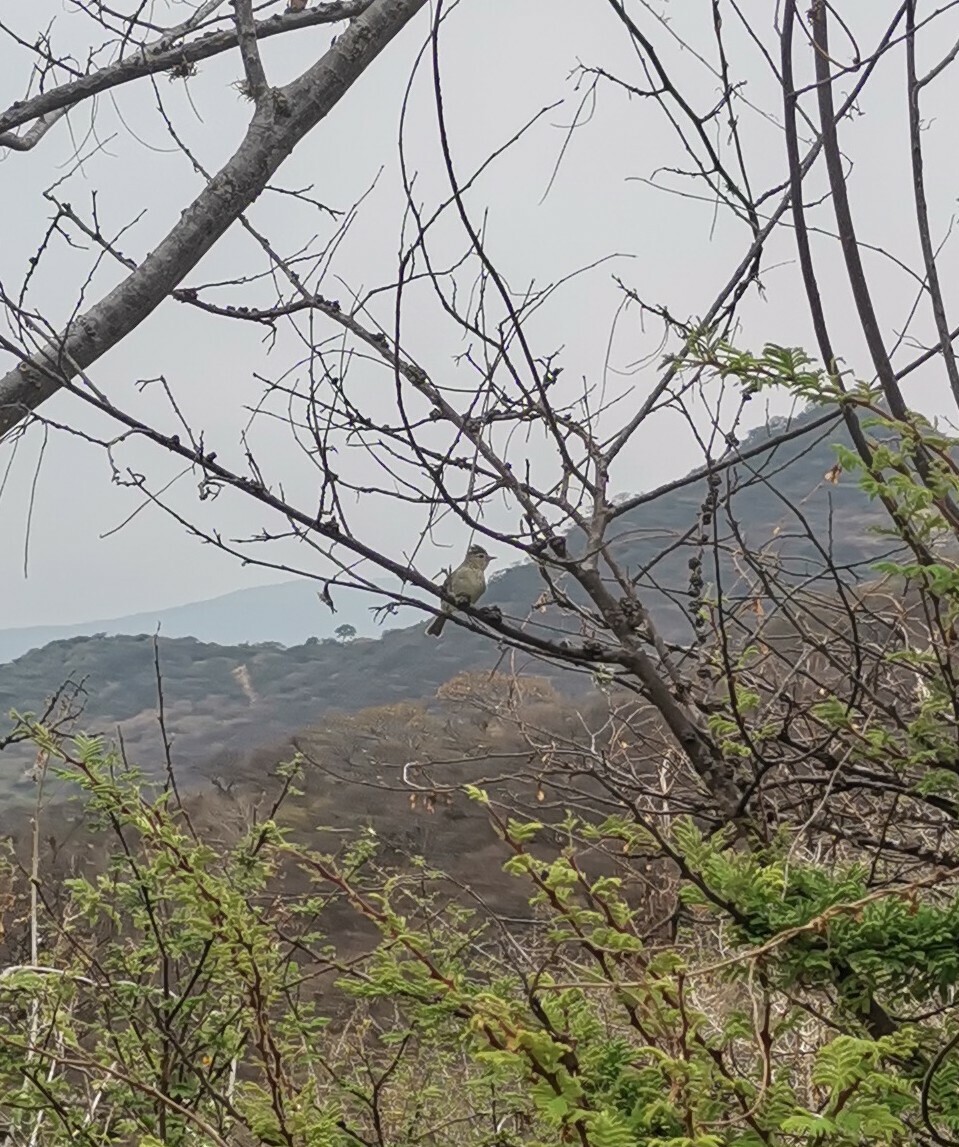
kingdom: Animalia
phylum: Chordata
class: Aves
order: Passeriformes
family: Tyrannidae
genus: Camptostoma
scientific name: Camptostoma imberbe
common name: Northern beardless-tyrannulet
